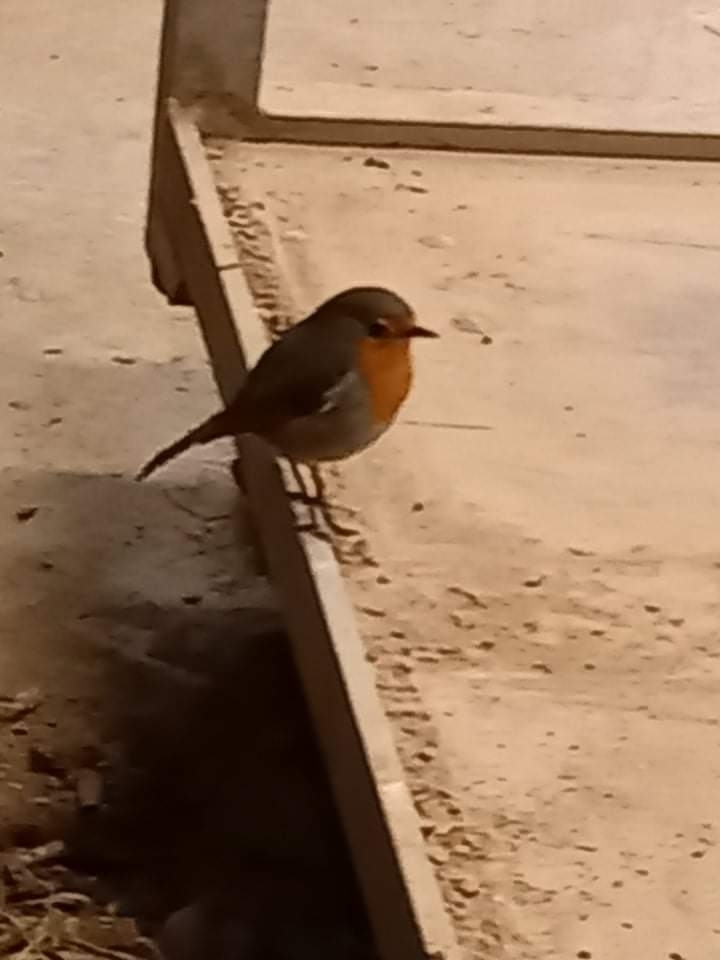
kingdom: Animalia
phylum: Chordata
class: Aves
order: Passeriformes
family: Muscicapidae
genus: Erithacus
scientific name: Erithacus rubecula
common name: European robin
